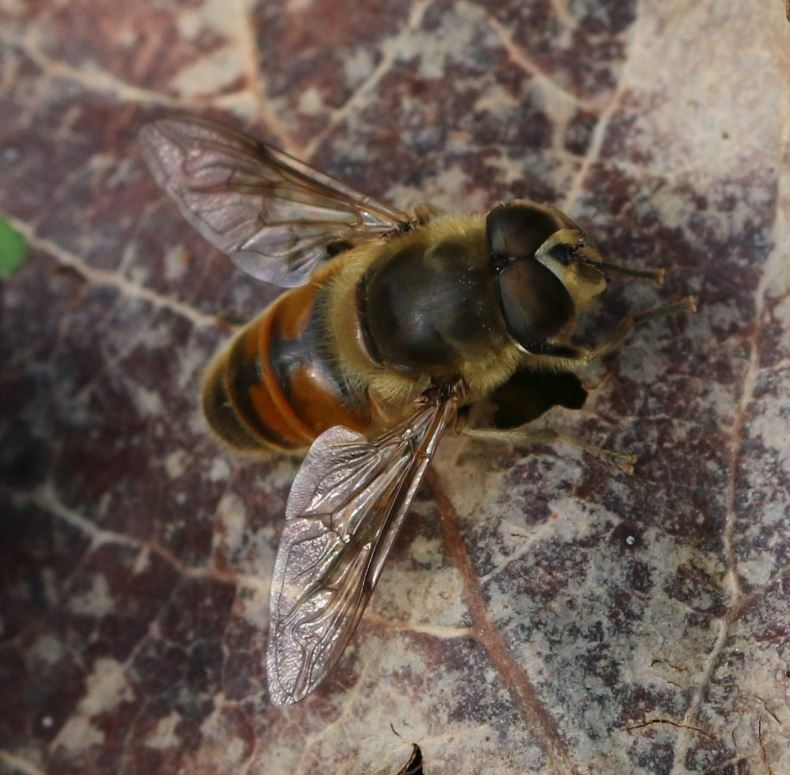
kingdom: Animalia
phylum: Arthropoda
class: Insecta
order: Diptera
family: Syrphidae
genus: Eristalis
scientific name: Eristalis tenax
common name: Drone fly
